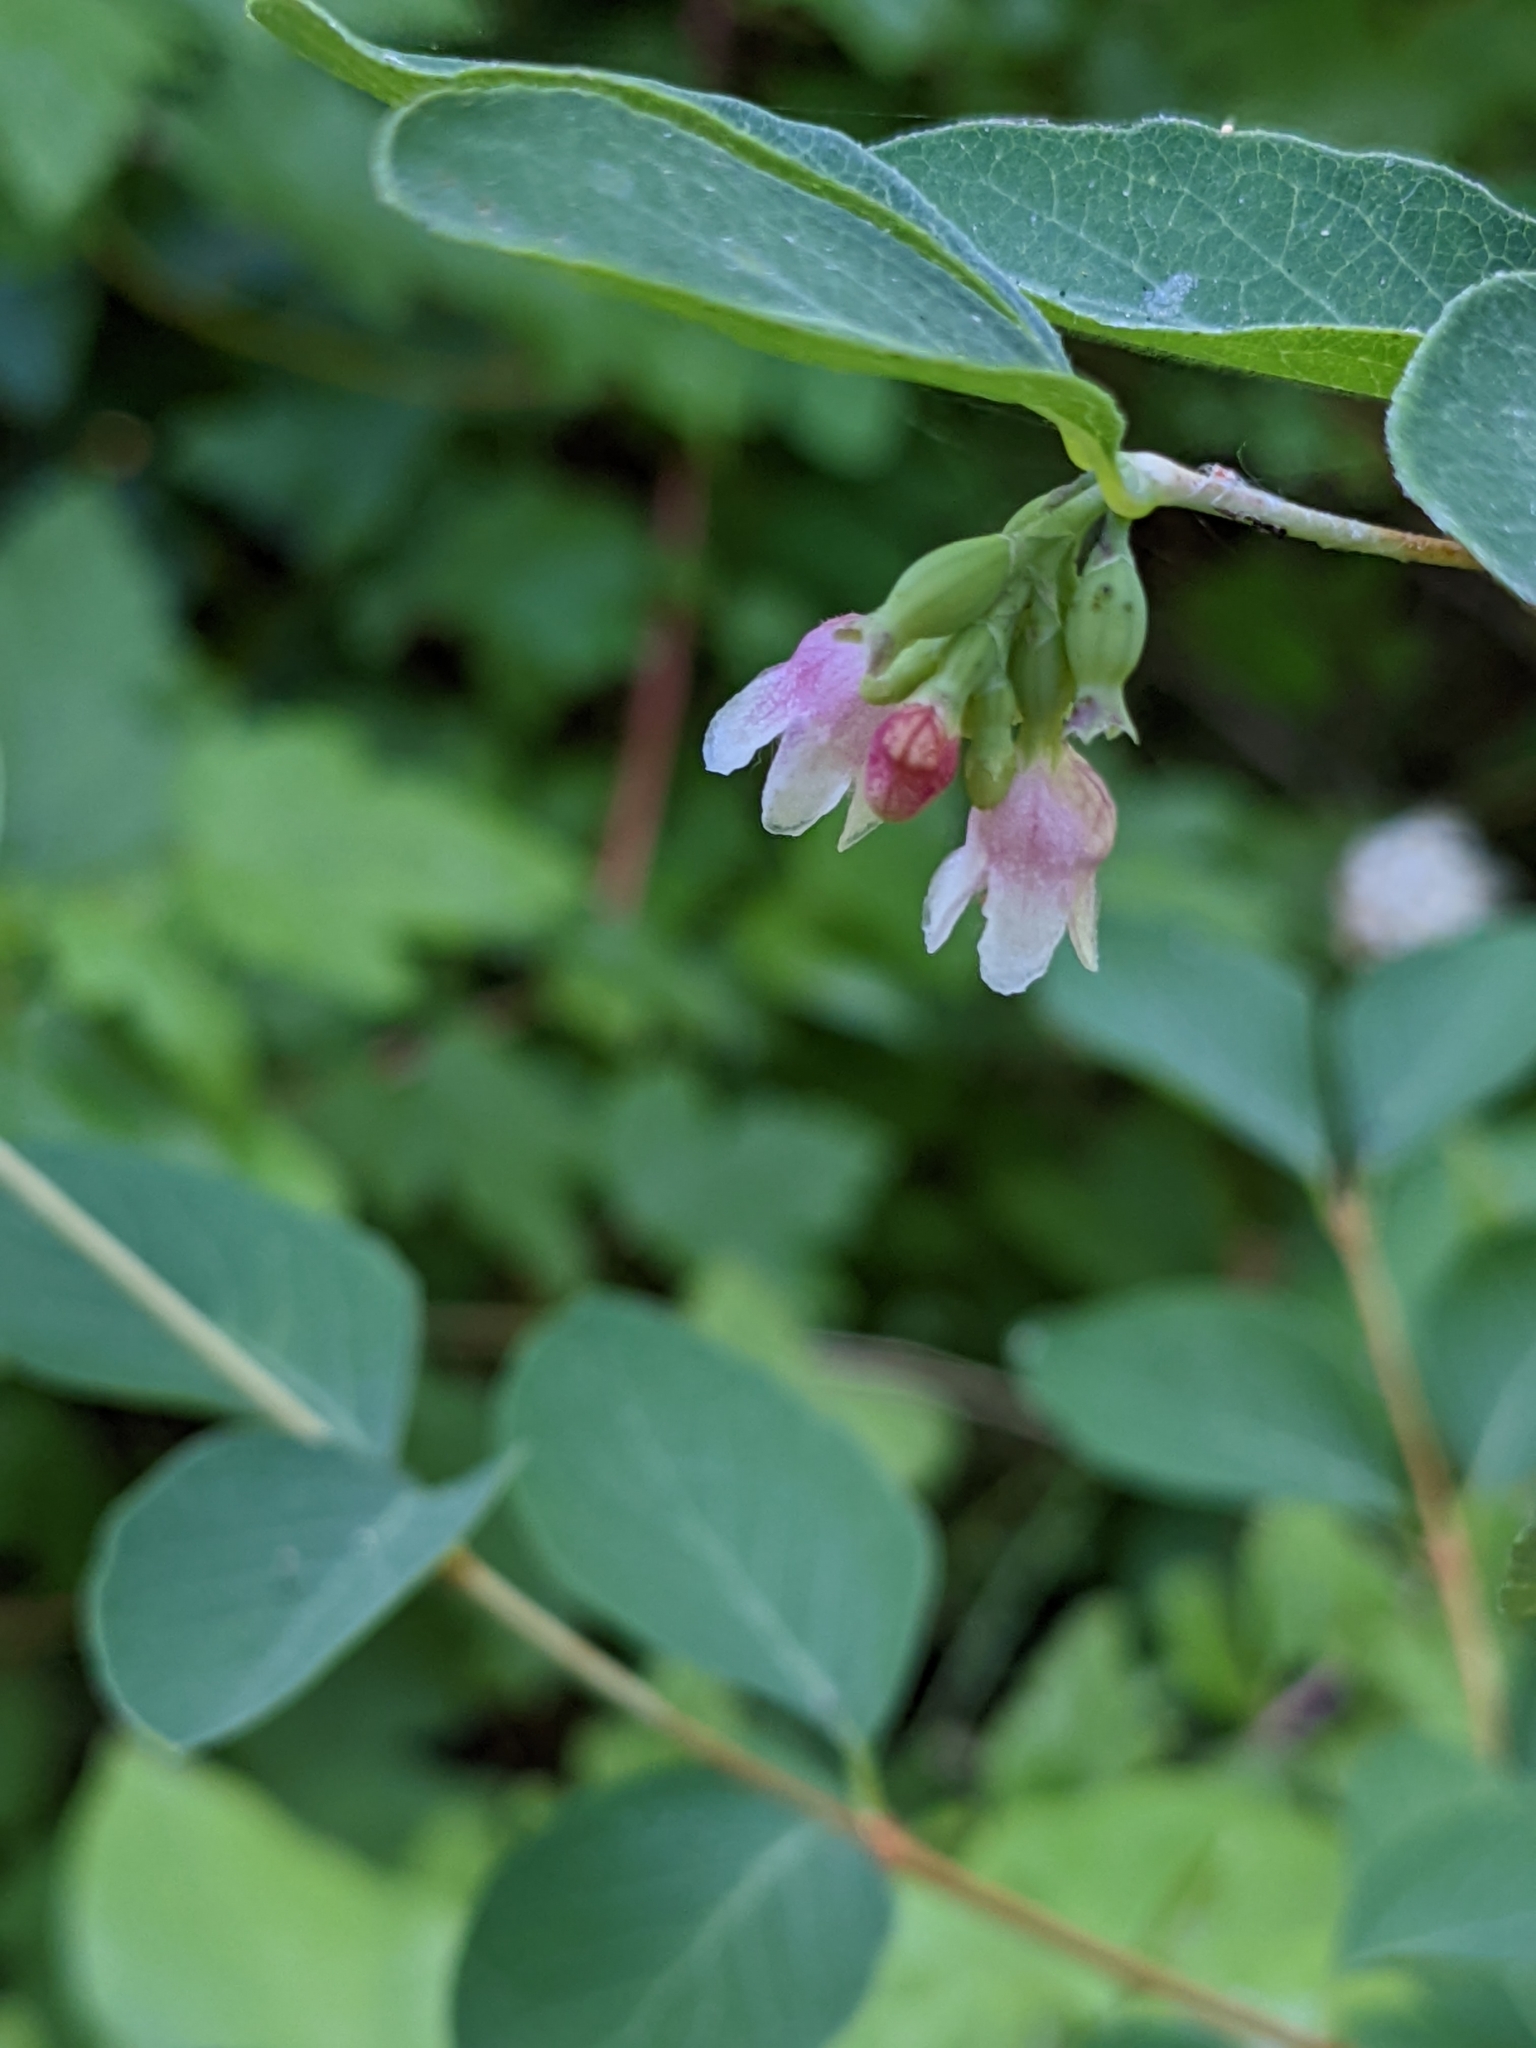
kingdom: Plantae
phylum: Tracheophyta
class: Magnoliopsida
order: Dipsacales
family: Caprifoliaceae
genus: Symphoricarpos
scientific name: Symphoricarpos albus
